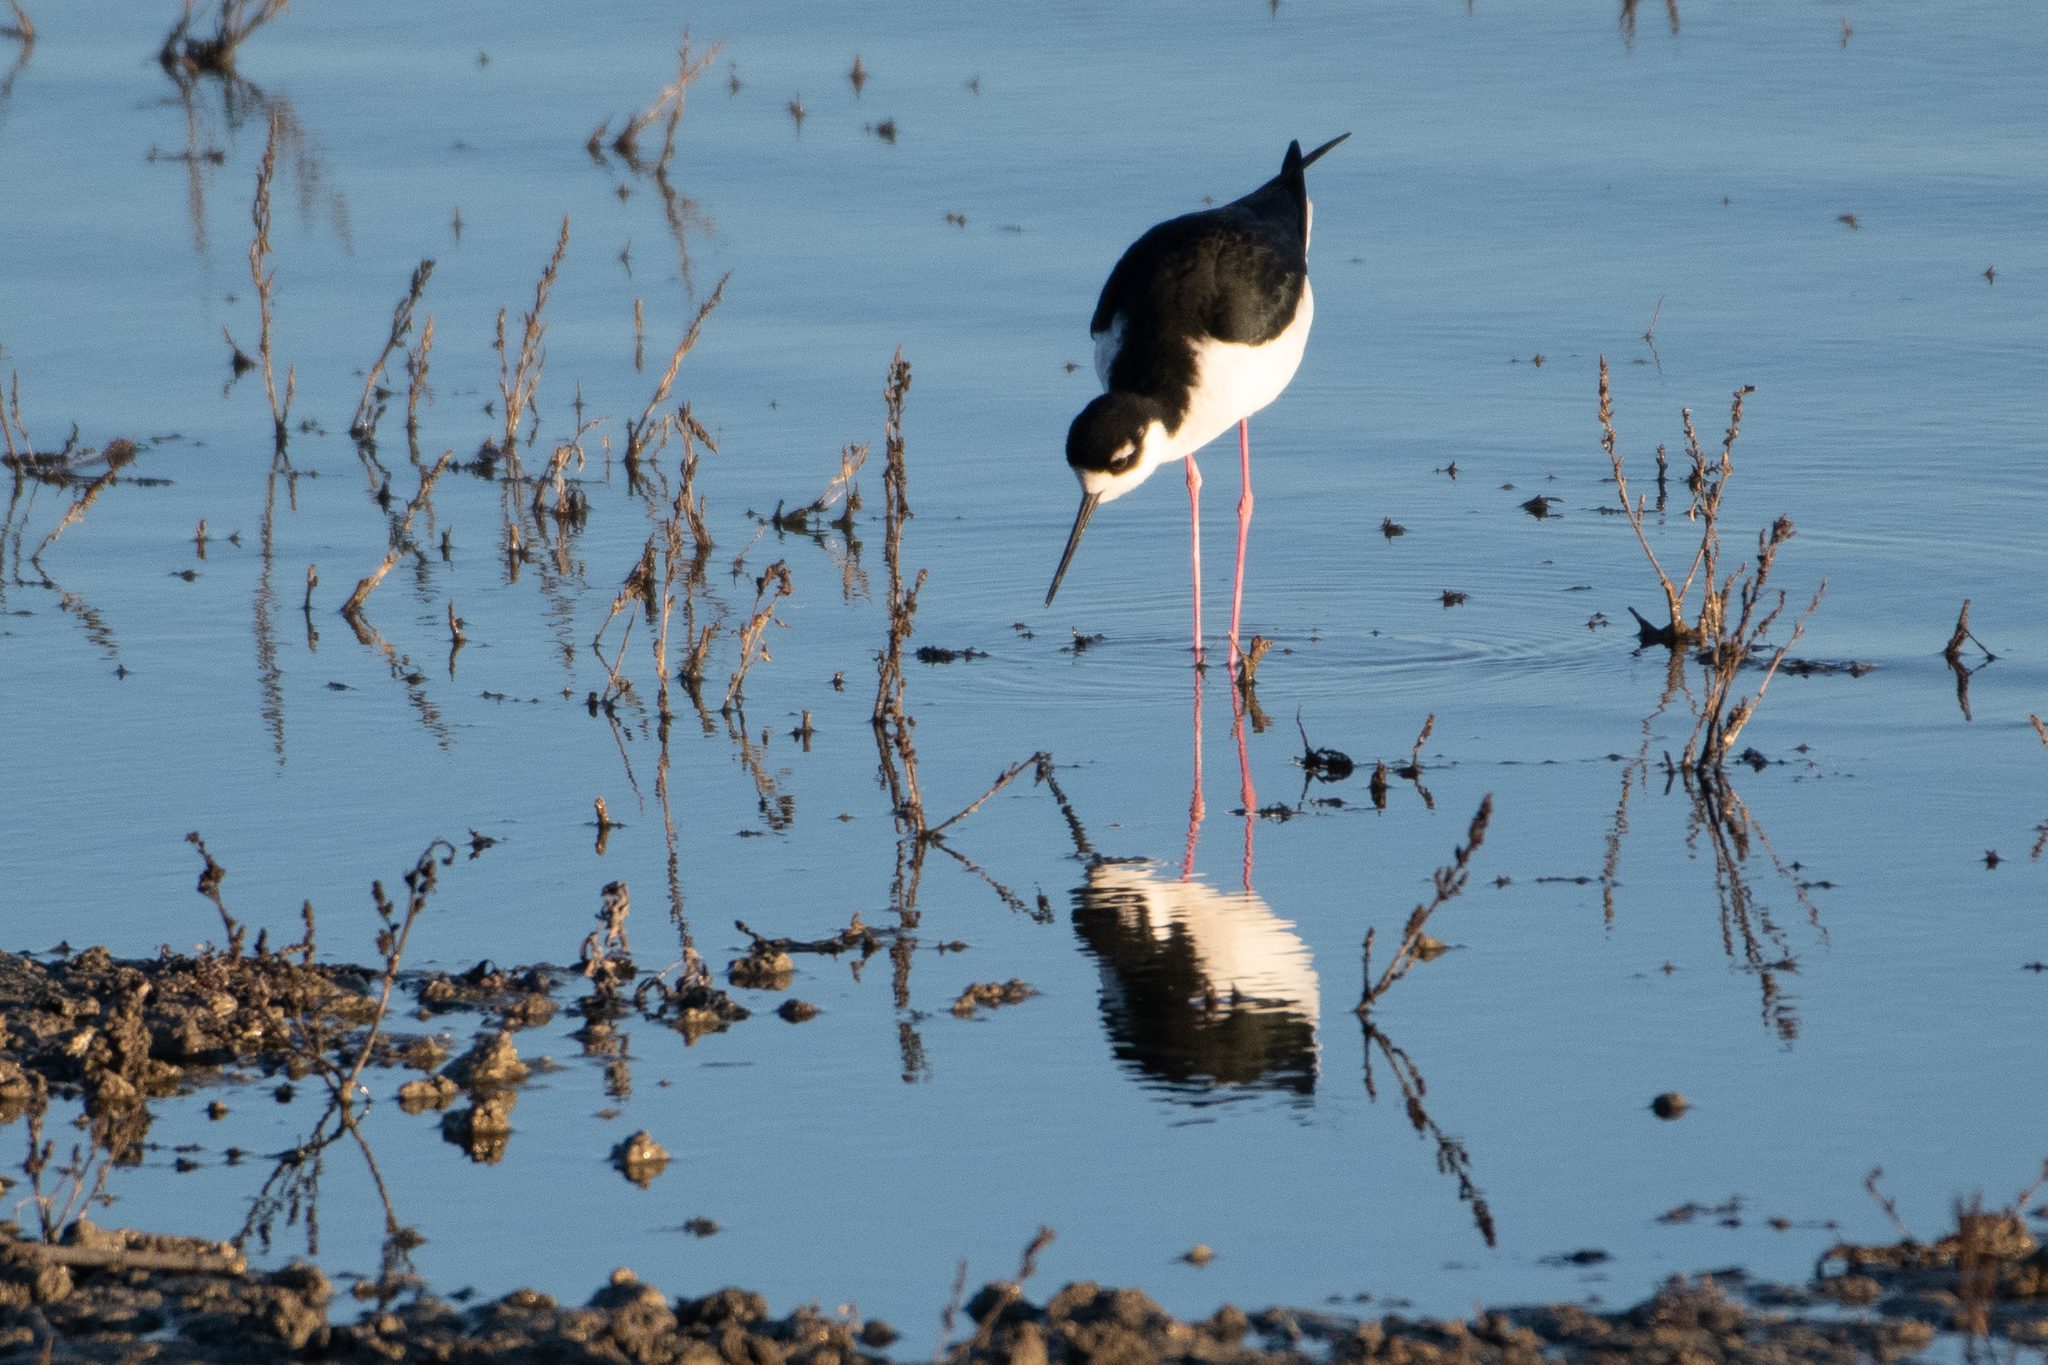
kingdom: Animalia
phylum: Chordata
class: Aves
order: Charadriiformes
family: Recurvirostridae
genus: Himantopus
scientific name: Himantopus mexicanus
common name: Black-necked stilt
